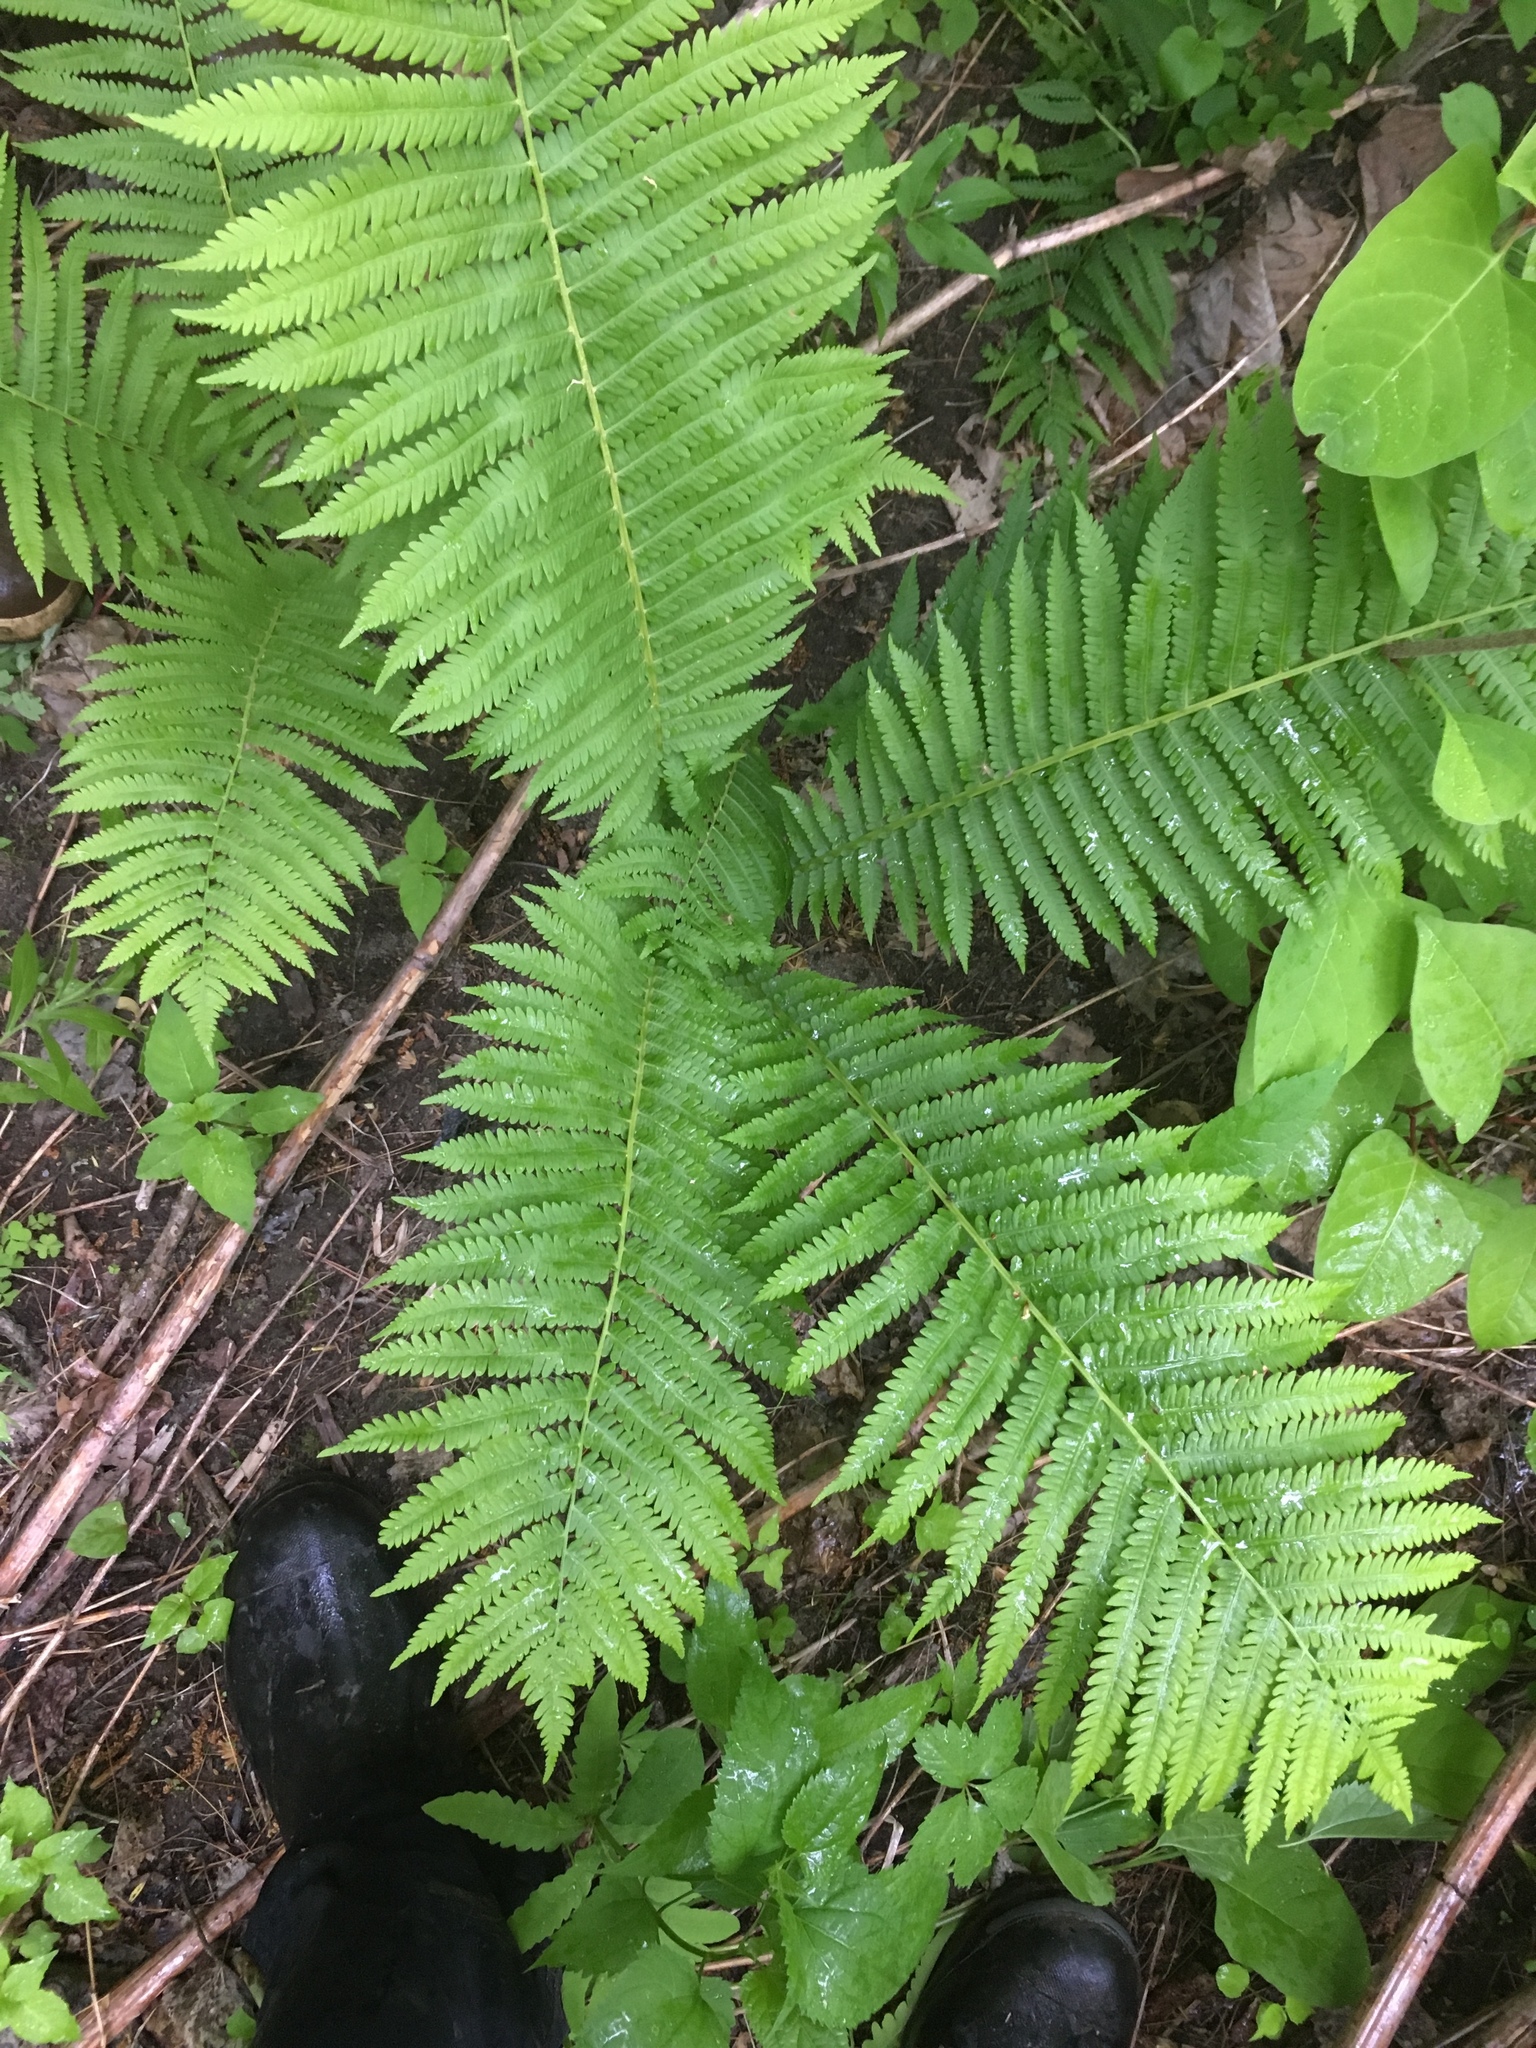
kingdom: Plantae
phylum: Tracheophyta
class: Polypodiopsida
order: Polypodiales
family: Onocleaceae
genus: Matteuccia
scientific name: Matteuccia struthiopteris
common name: Ostrich fern
